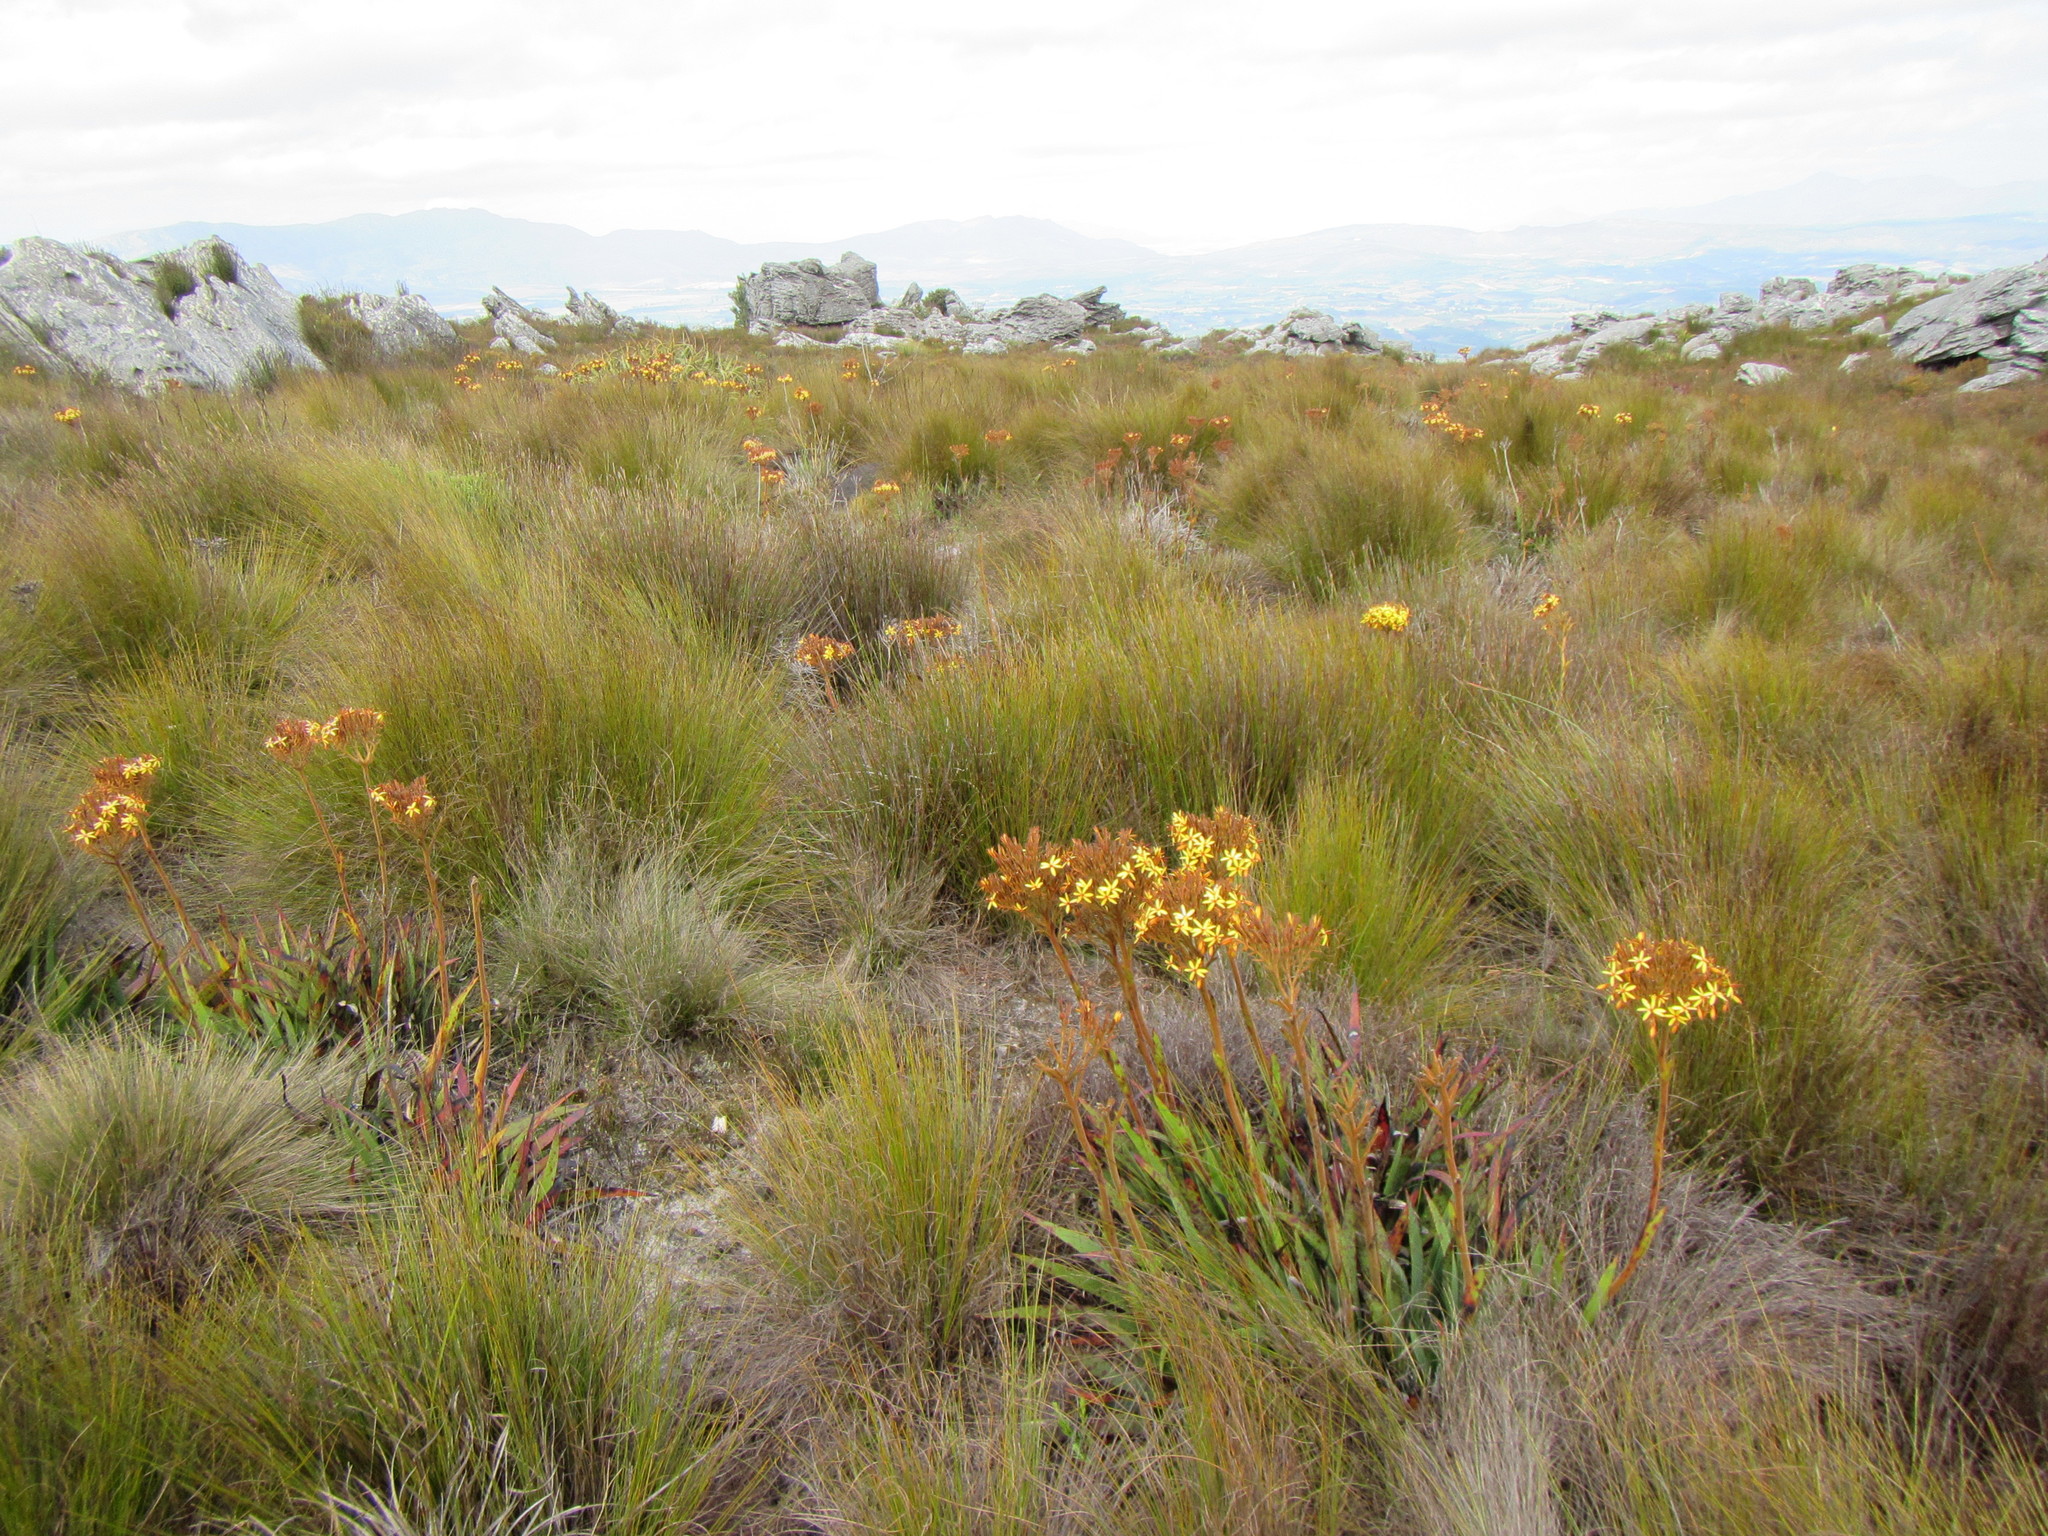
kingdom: Plantae
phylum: Tracheophyta
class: Liliopsida
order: Commelinales
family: Haemodoraceae
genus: Dilatris
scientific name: Dilatris viscosa
